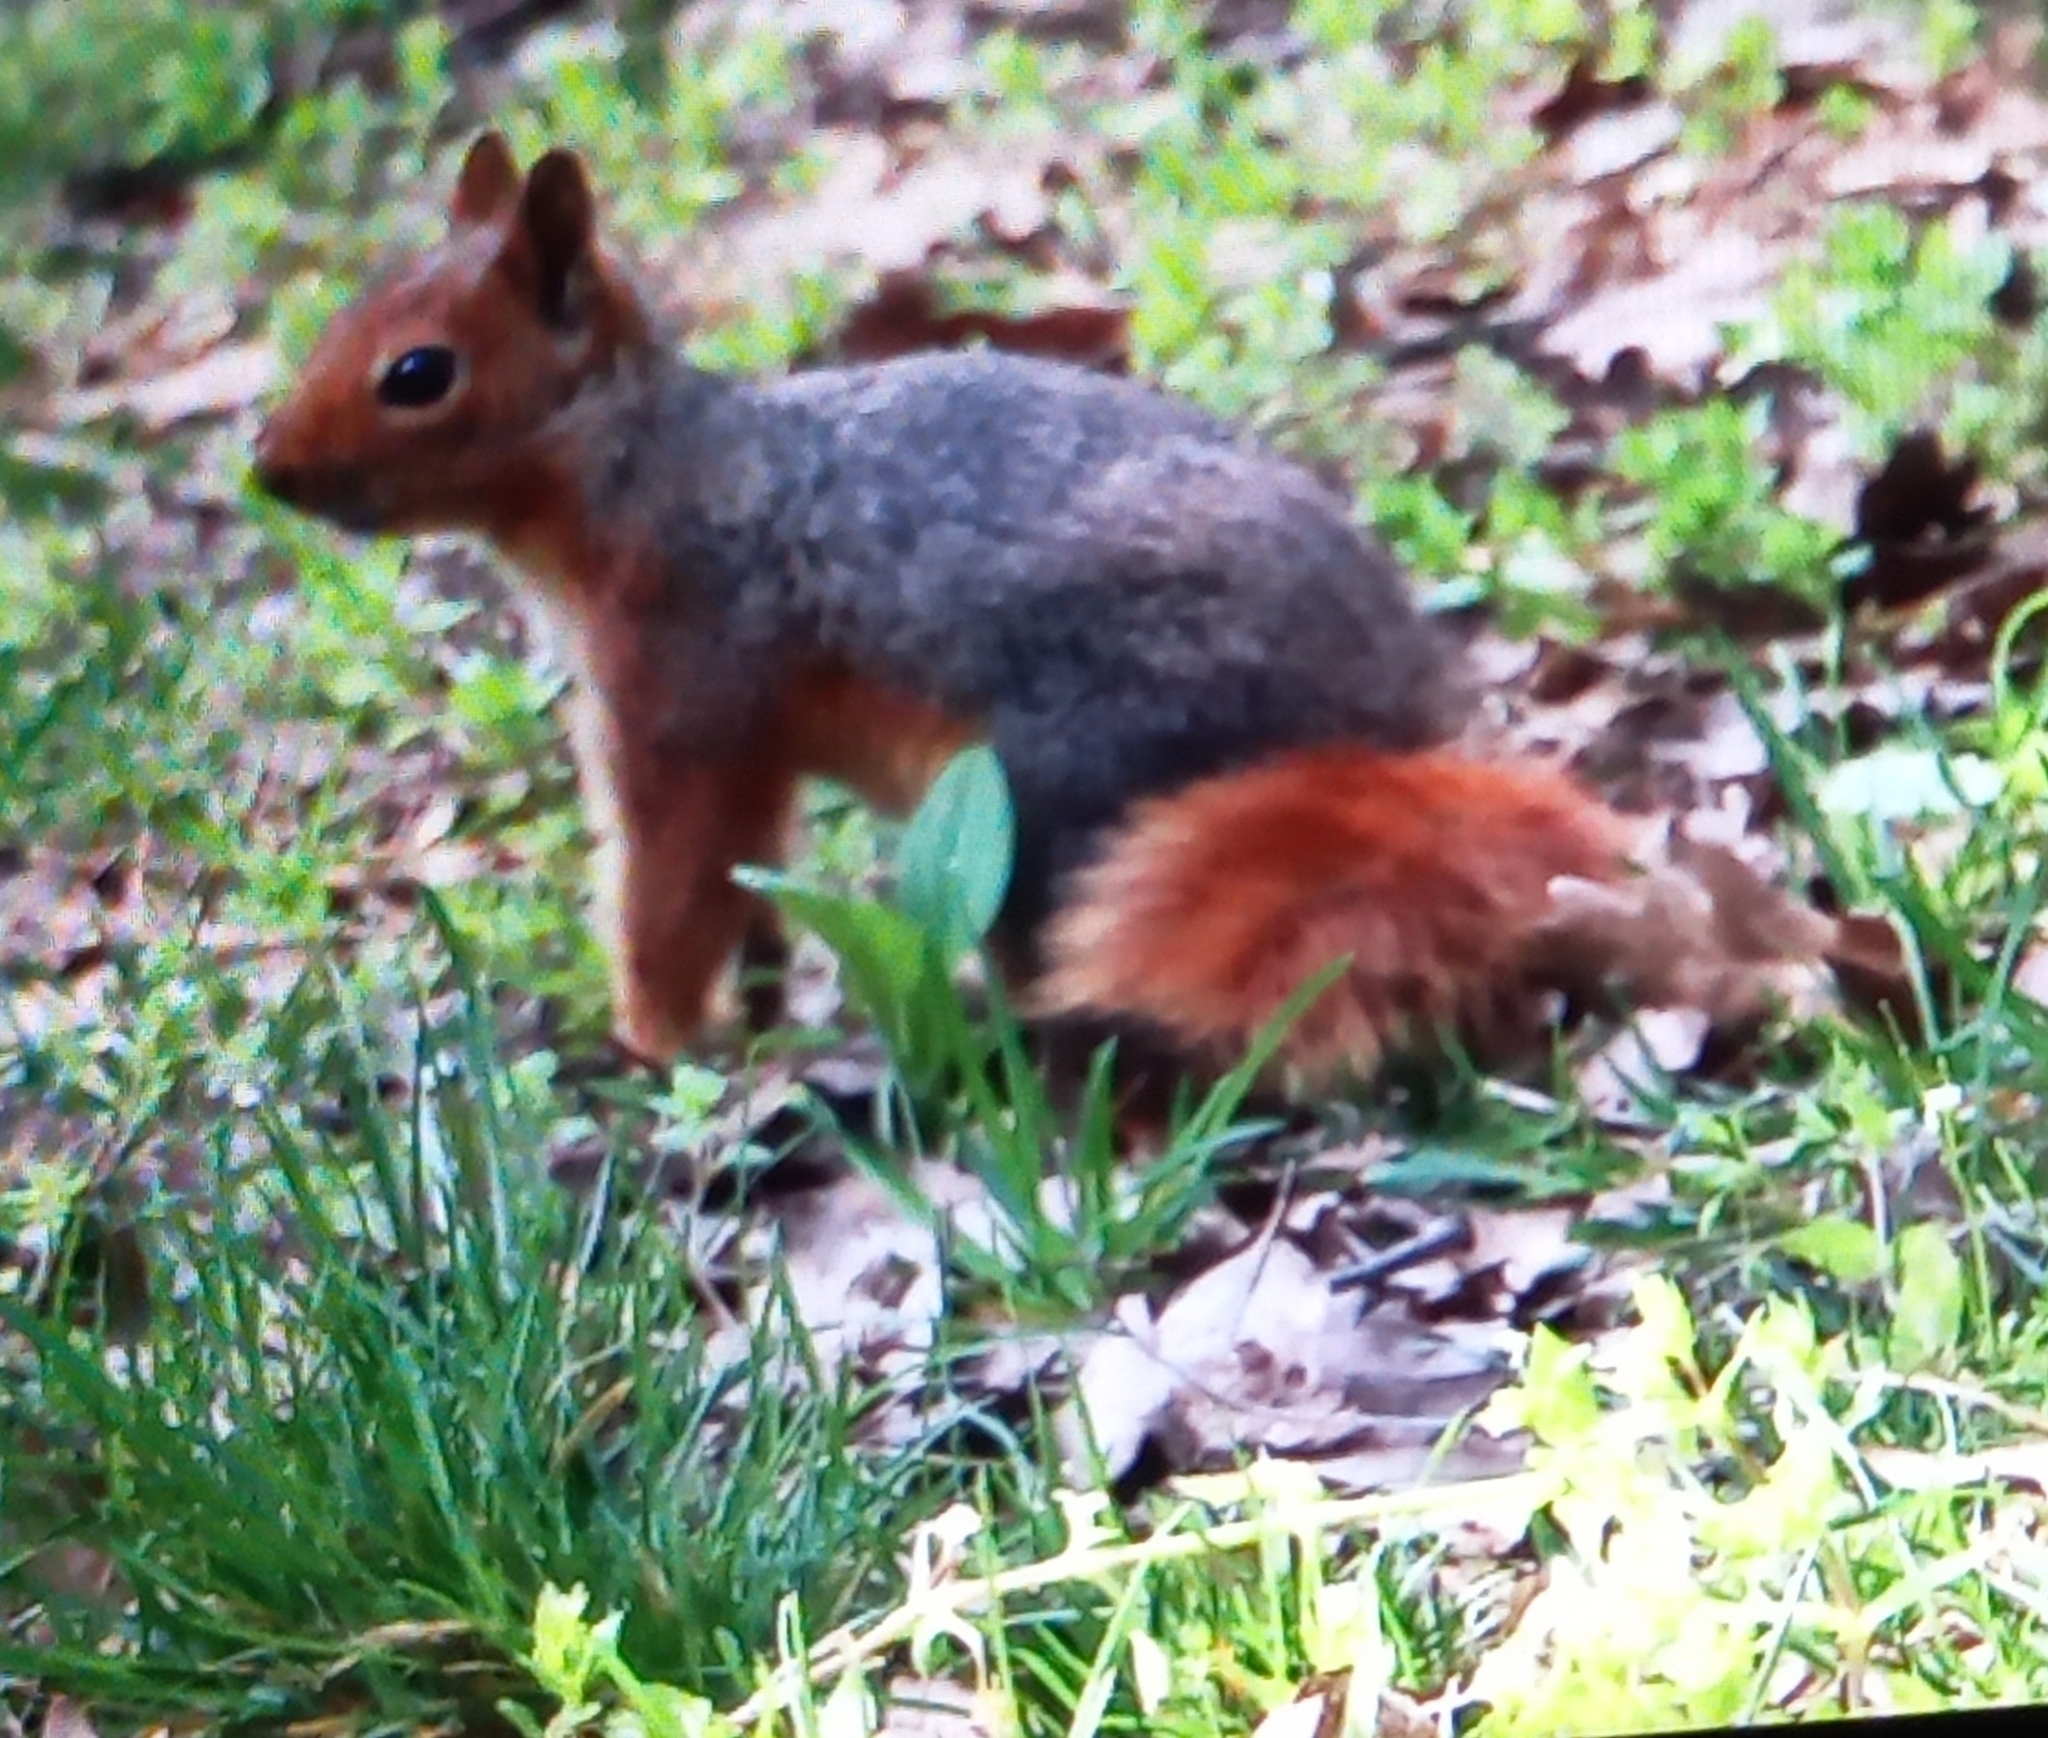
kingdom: Animalia
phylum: Chordata
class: Mammalia
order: Rodentia
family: Sciuridae
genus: Sciurus
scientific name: Sciurus anomalus
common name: Caucasian squirrel
